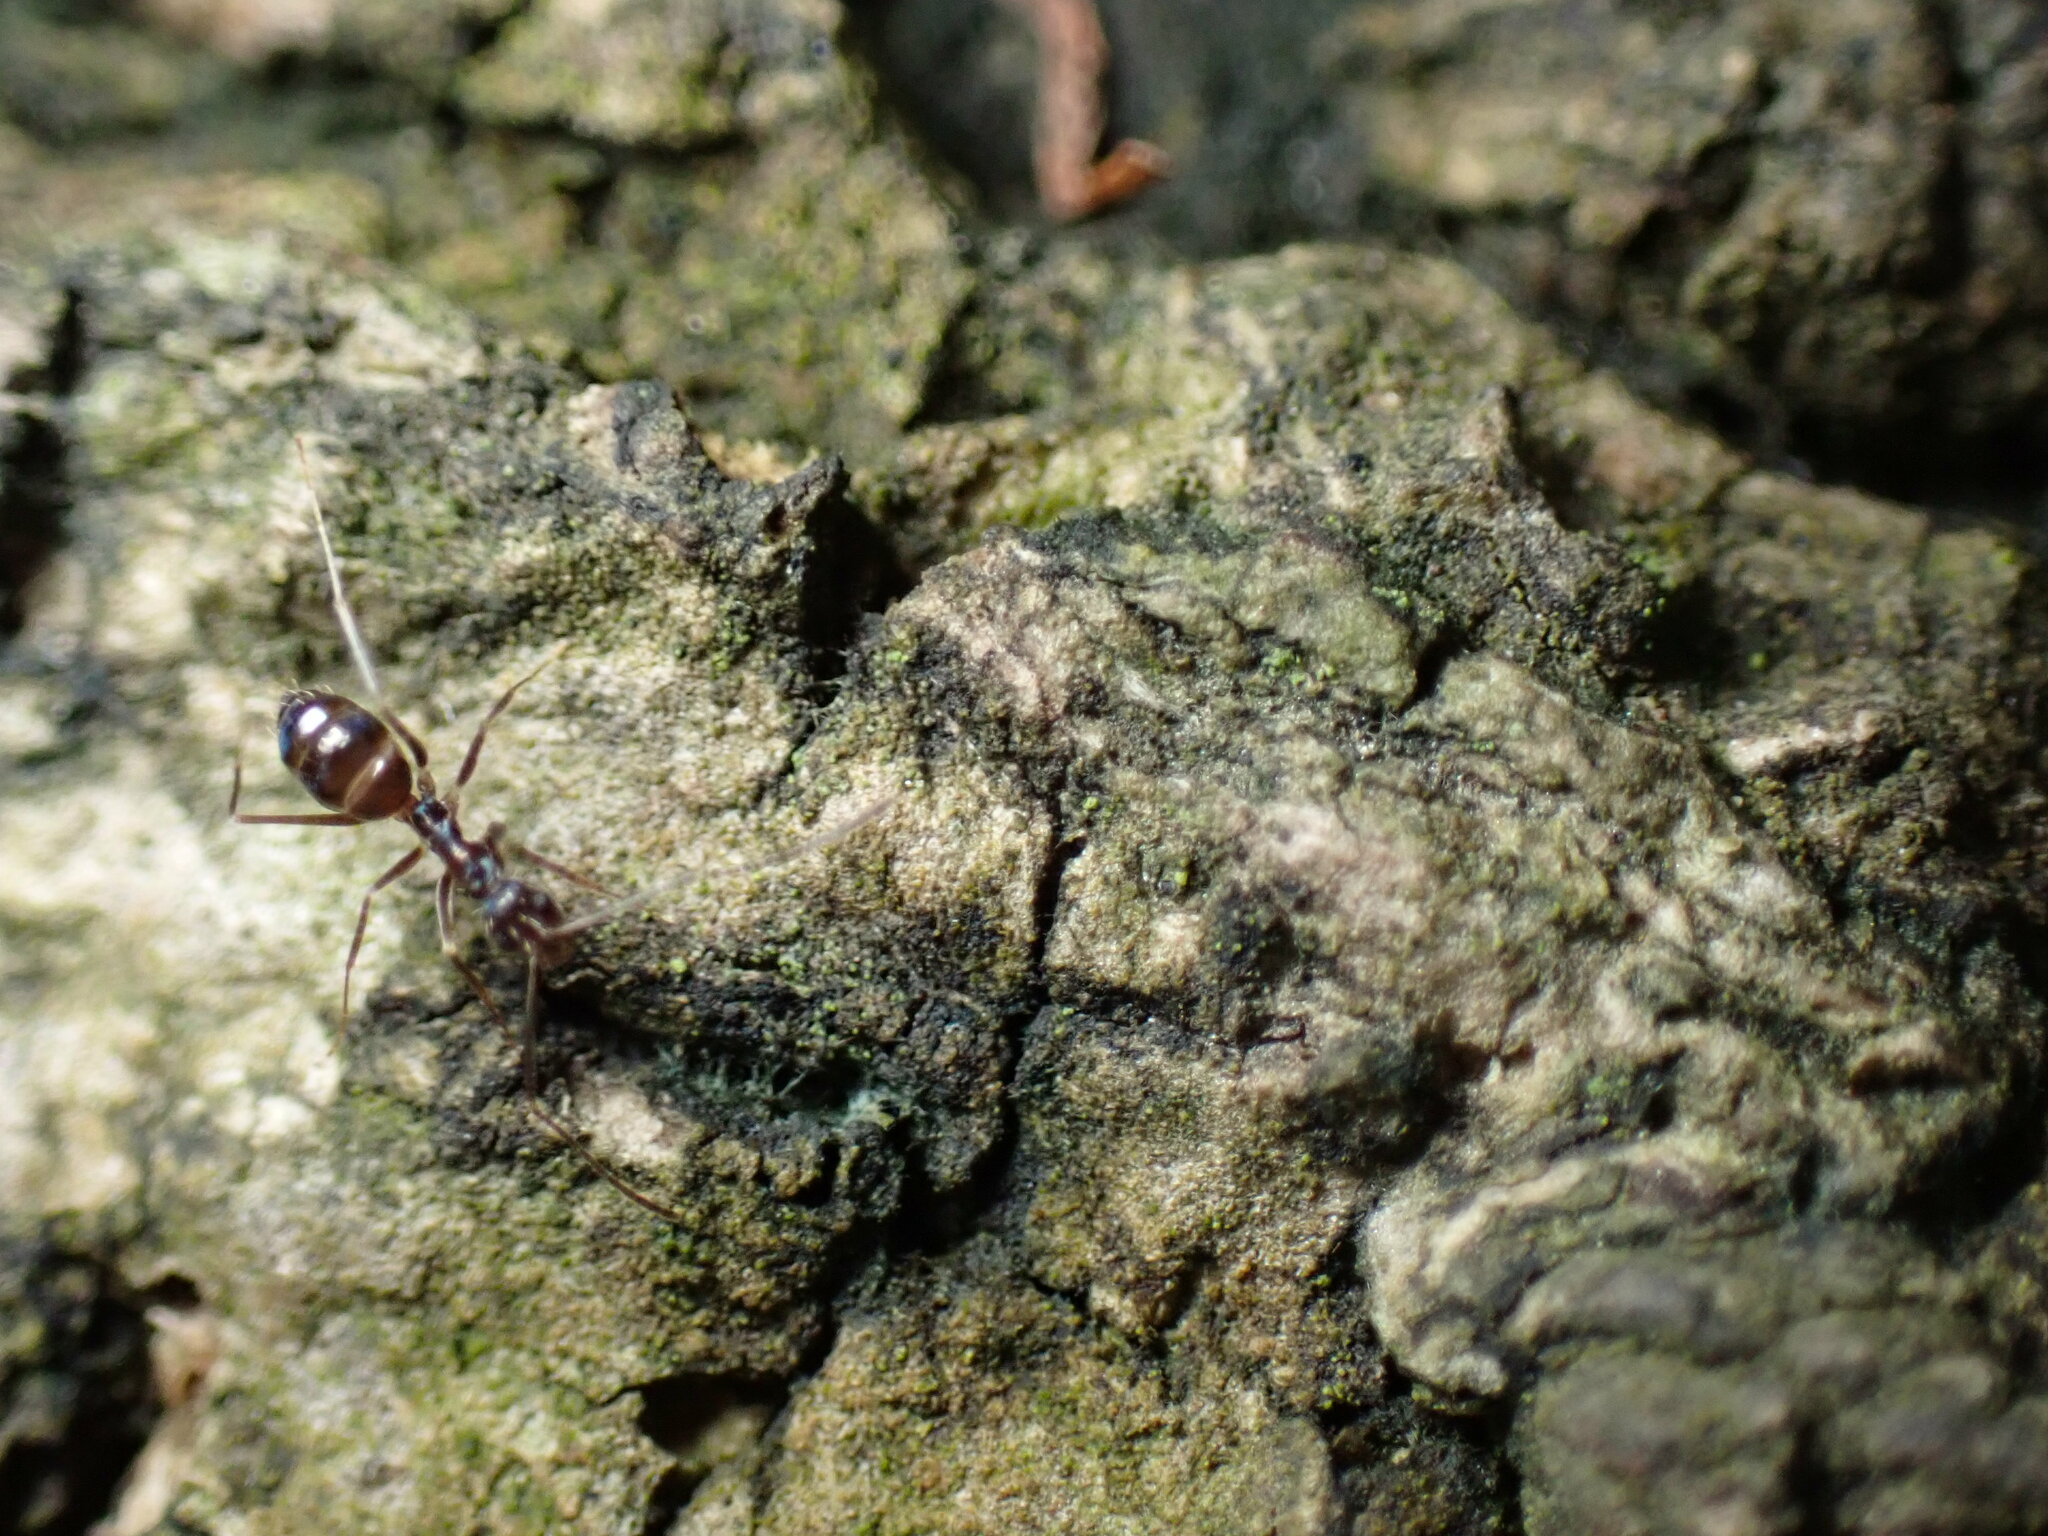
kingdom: Animalia
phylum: Arthropoda
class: Insecta
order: Hymenoptera
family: Formicidae
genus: Paratrechina
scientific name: Paratrechina longicornis
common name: Longhorned crazy ant
